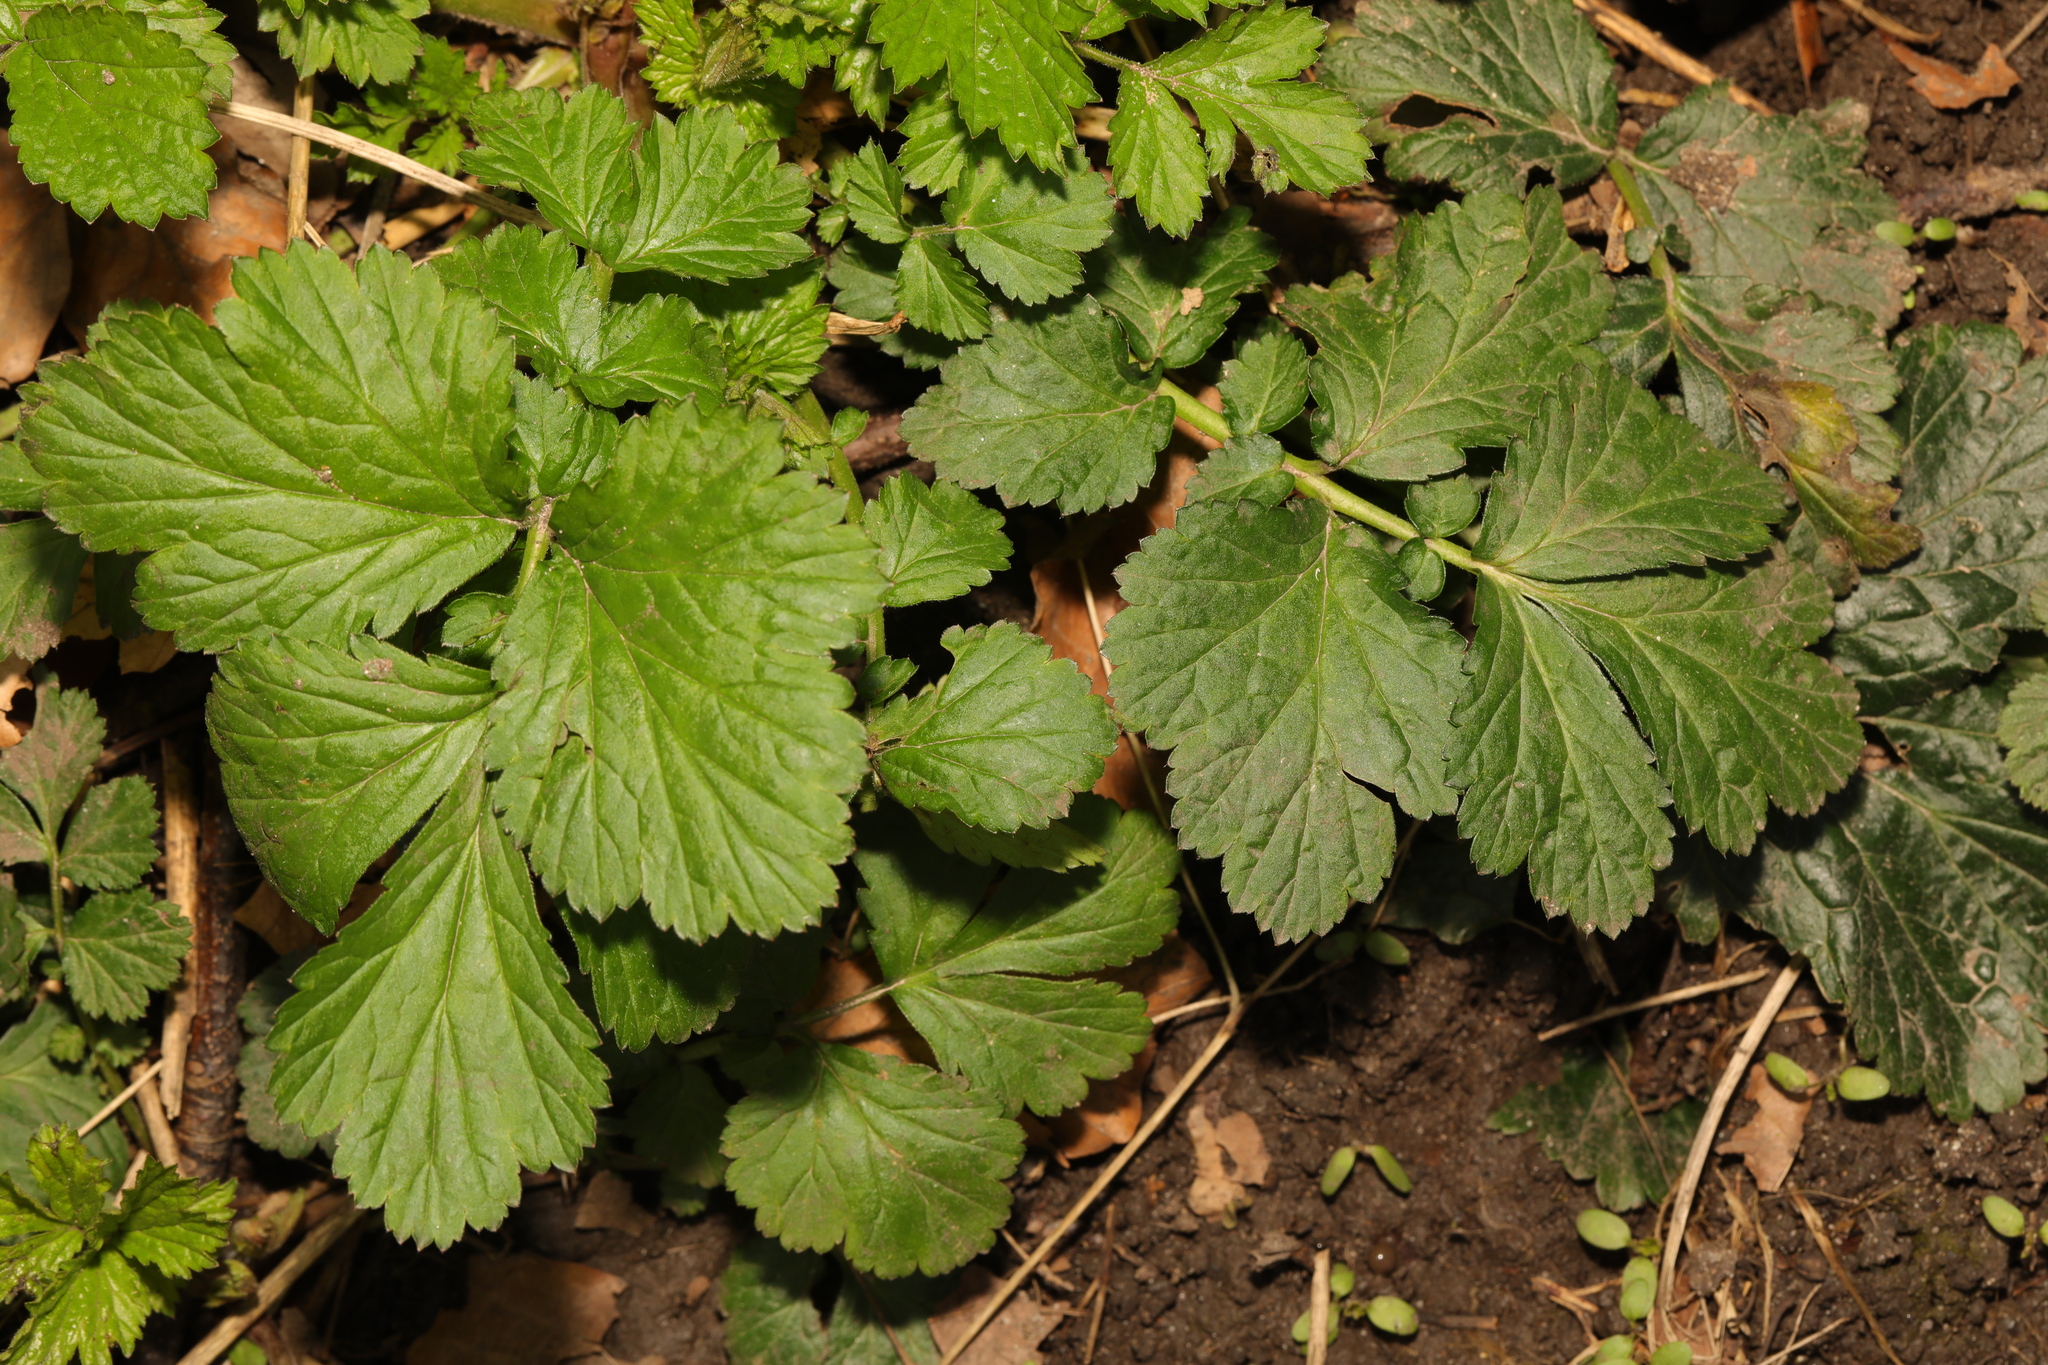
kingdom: Plantae
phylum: Tracheophyta
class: Magnoliopsida
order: Rosales
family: Rosaceae
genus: Geum
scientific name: Geum urbanum
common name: Wood avens
